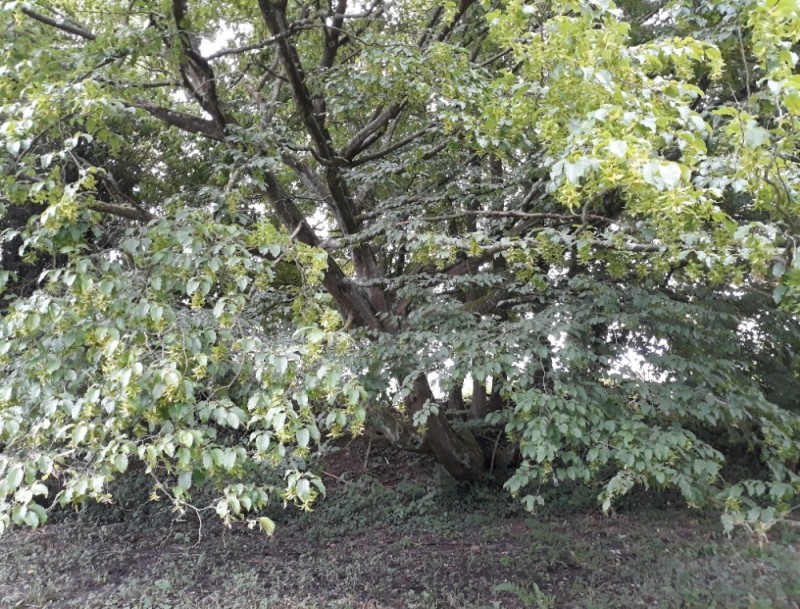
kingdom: Plantae
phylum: Tracheophyta
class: Magnoliopsida
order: Fagales
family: Betulaceae
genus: Carpinus
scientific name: Carpinus betulus
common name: Hornbeam
